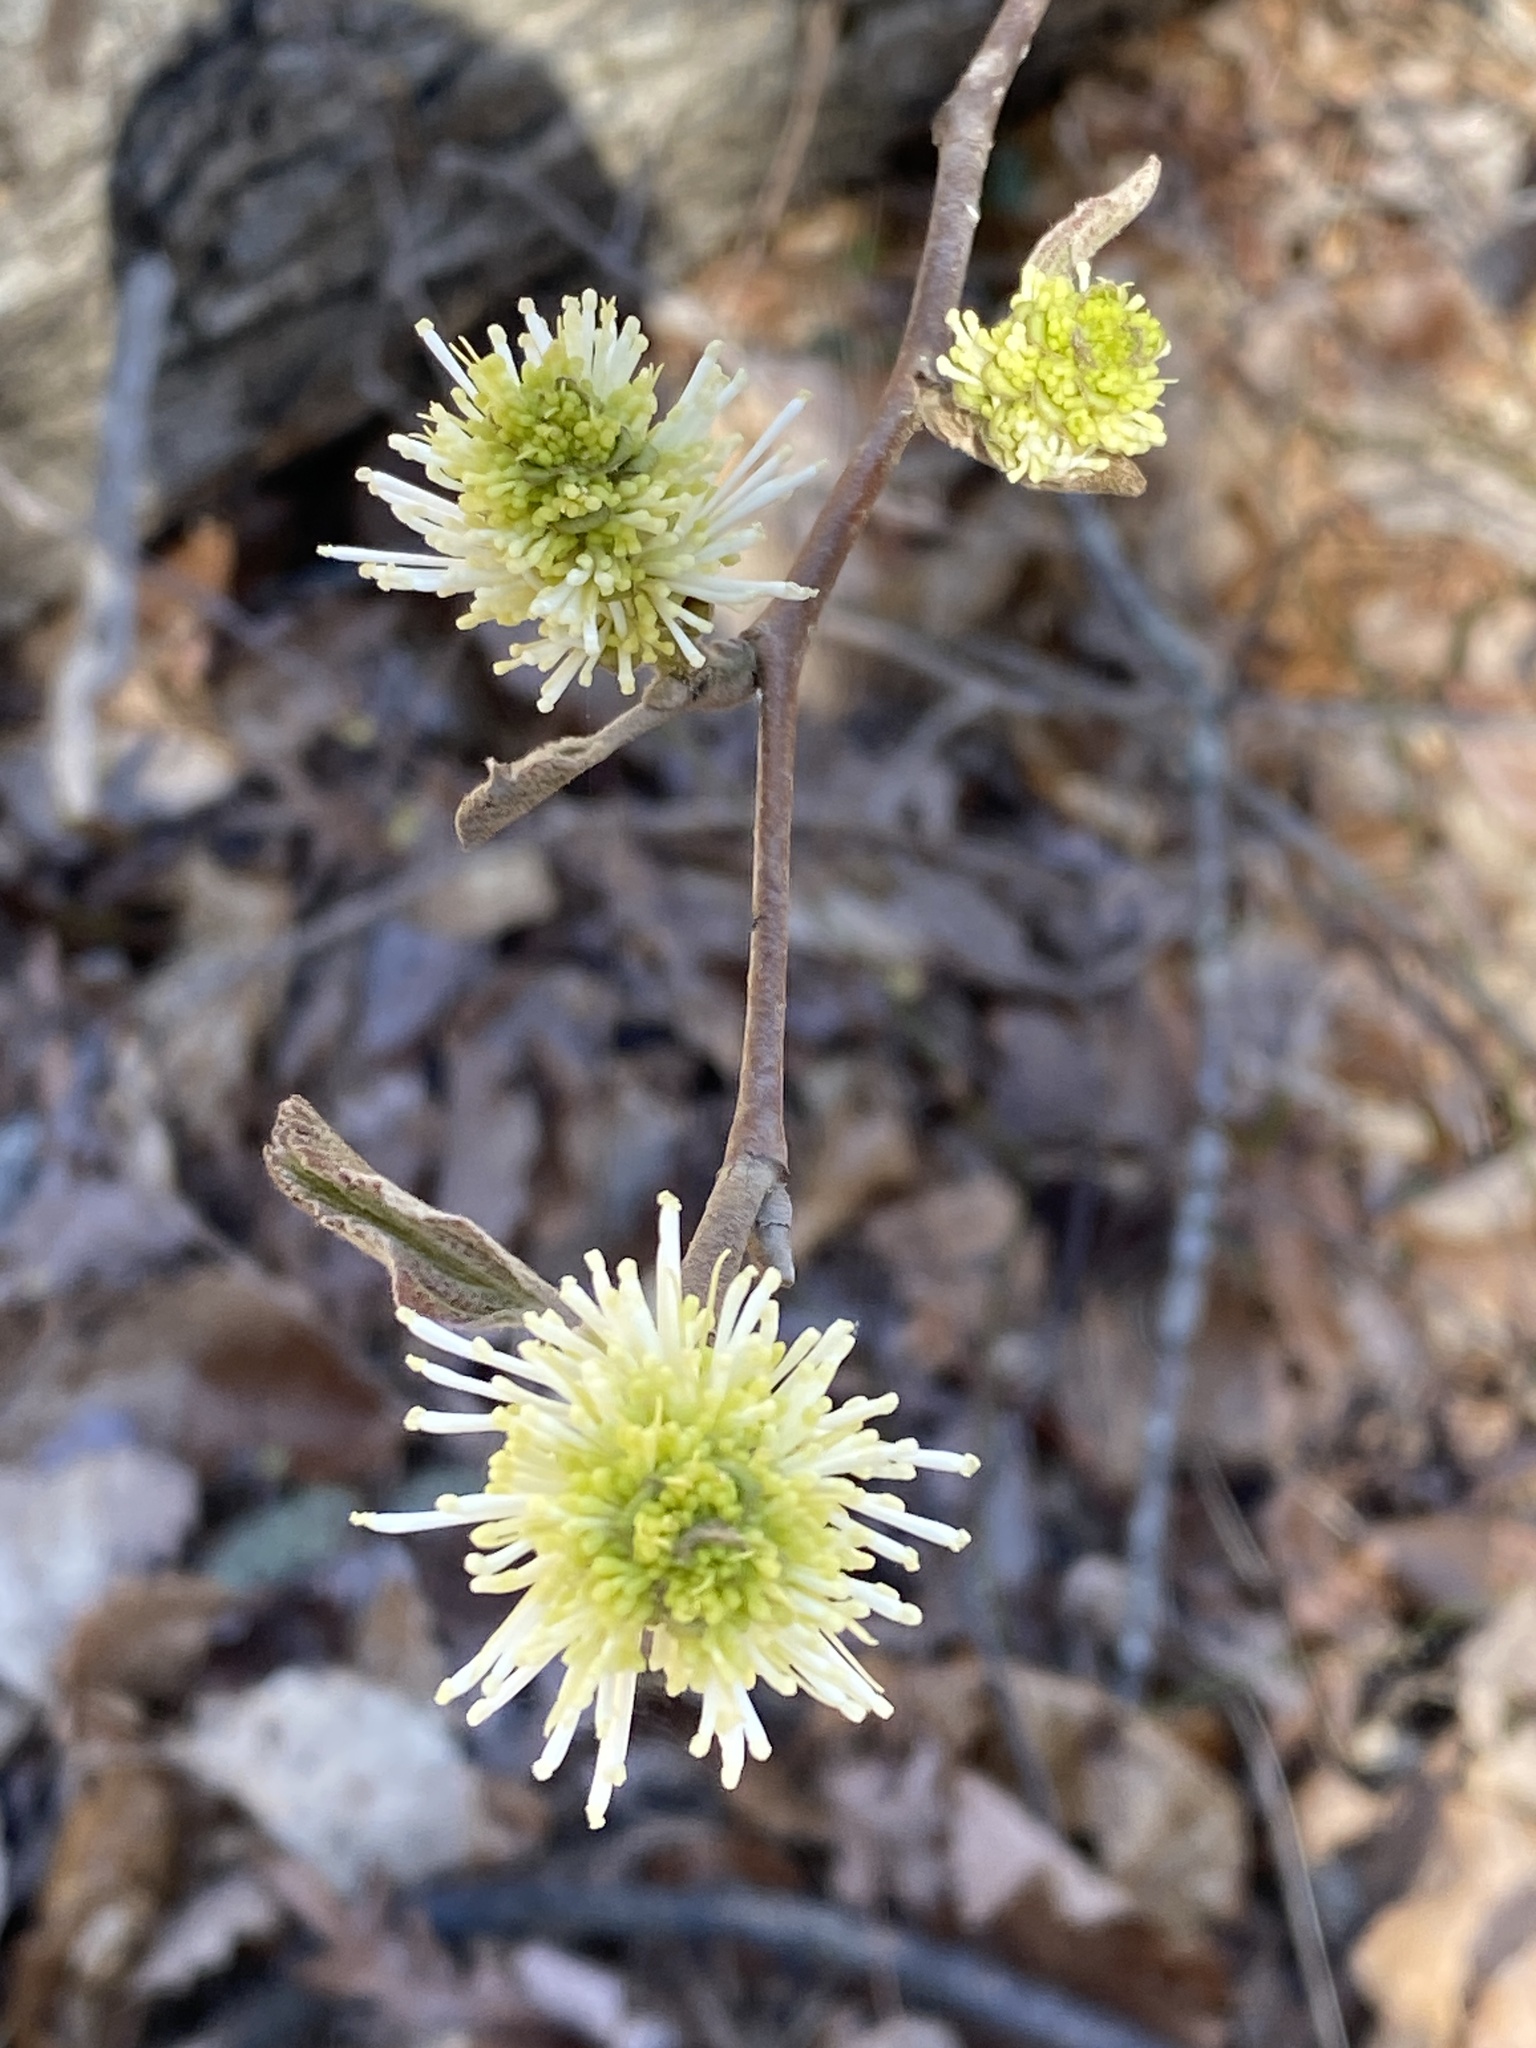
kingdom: Plantae
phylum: Tracheophyta
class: Magnoliopsida
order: Saxifragales
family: Hamamelidaceae
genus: Fothergilla
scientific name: Fothergilla latifolia
